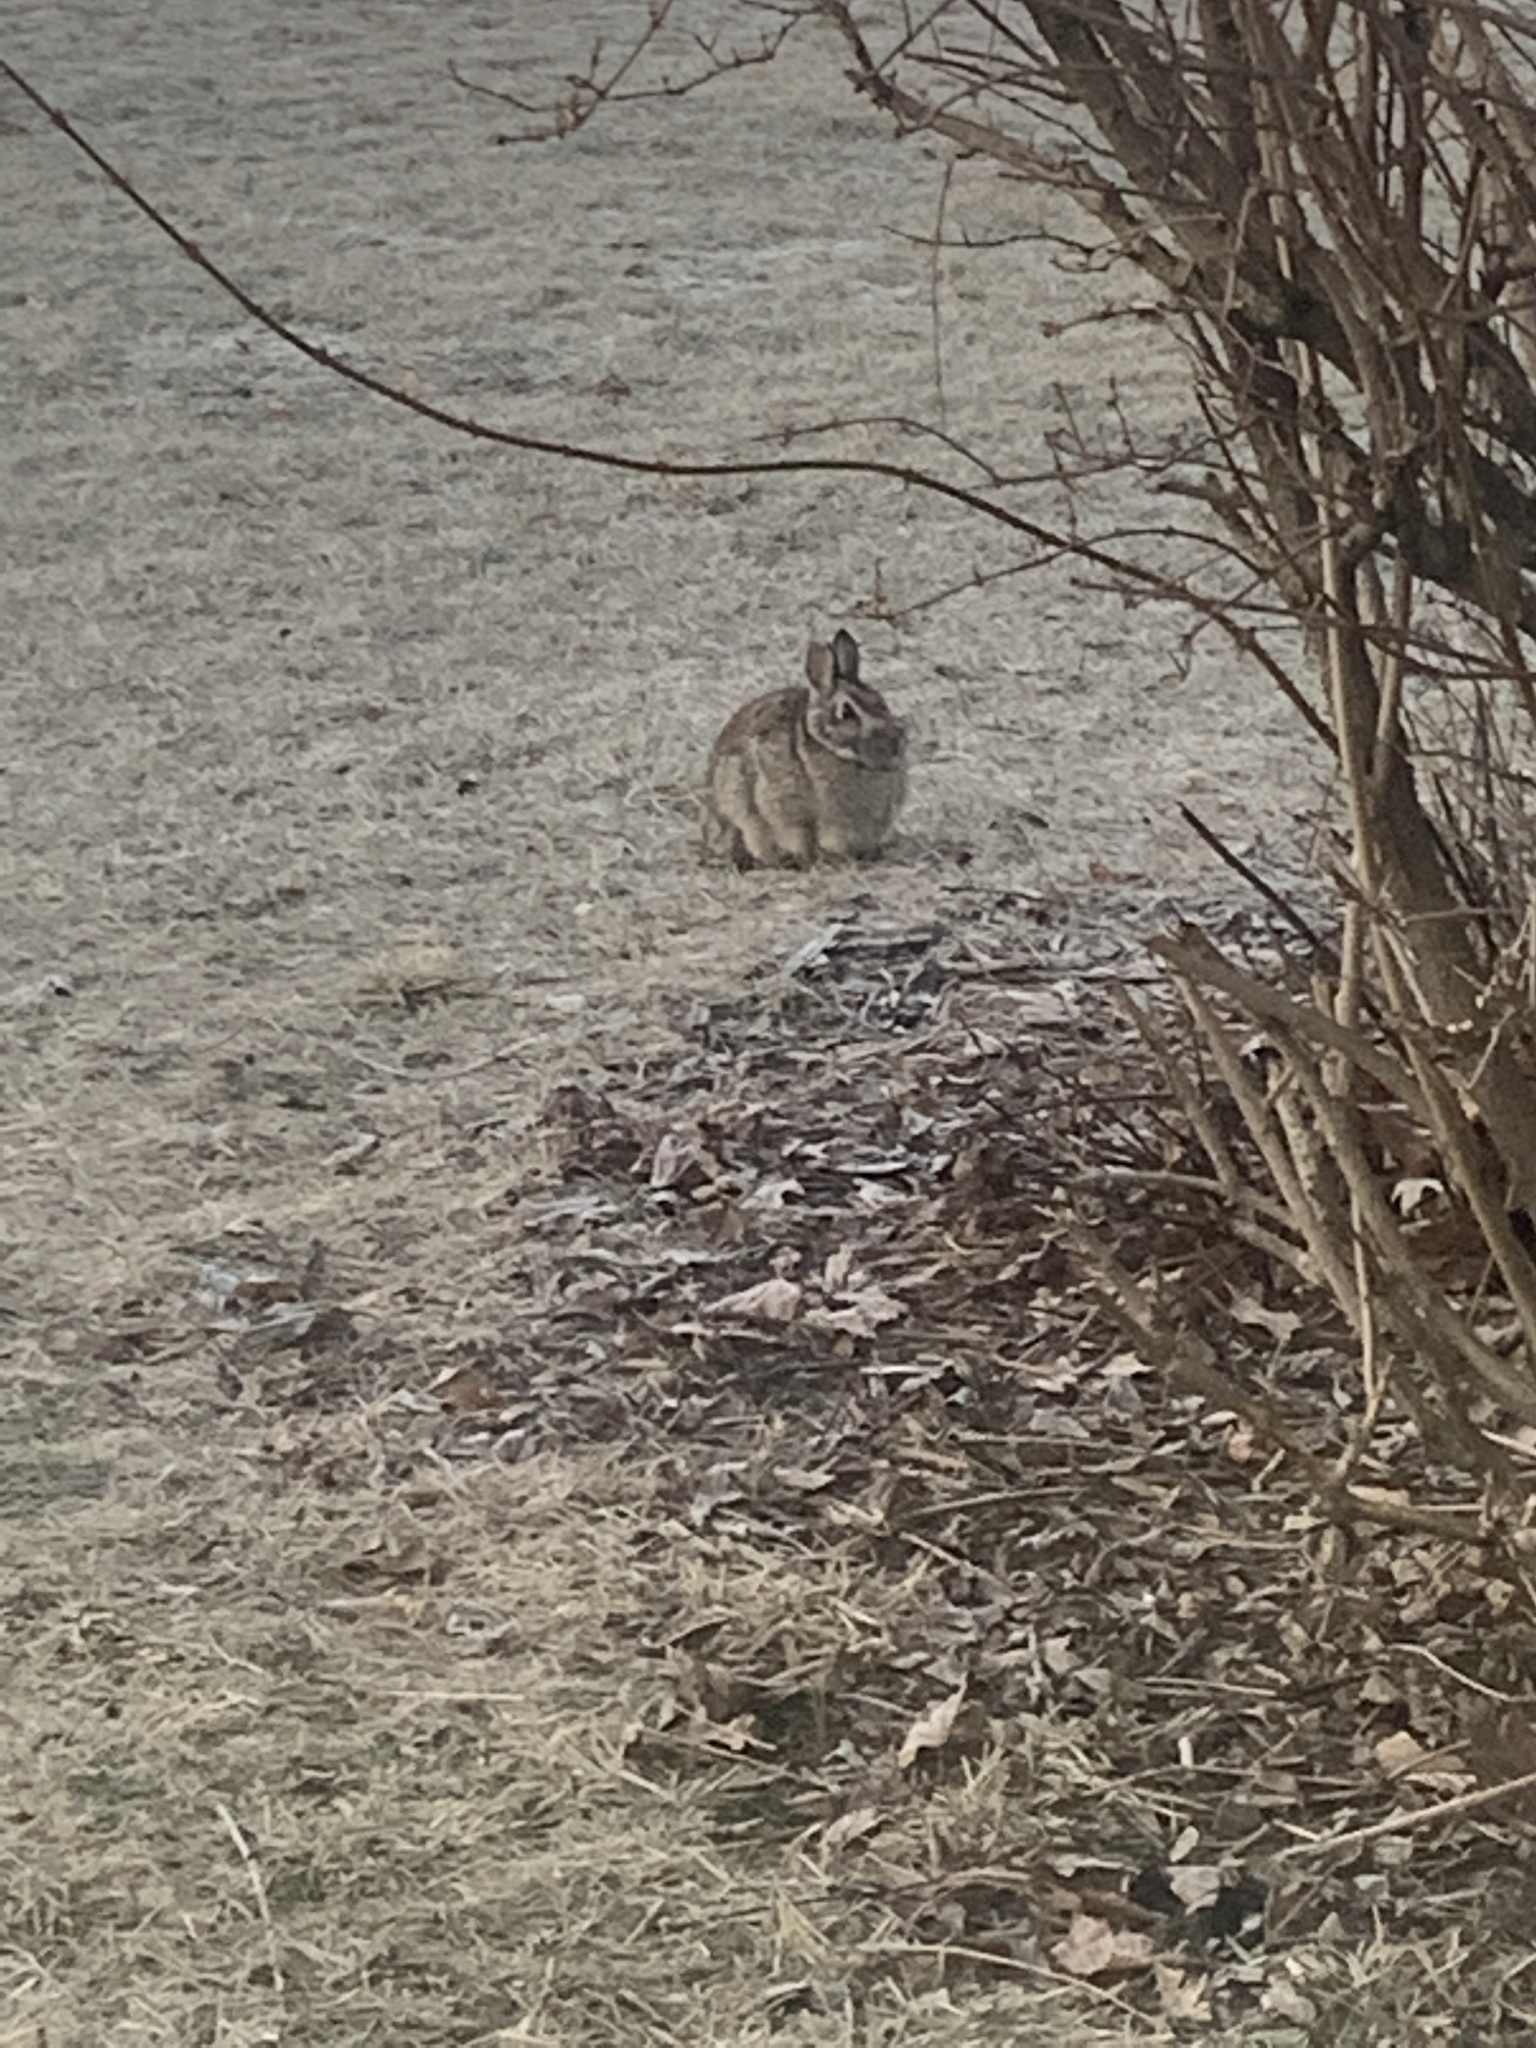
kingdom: Animalia
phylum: Chordata
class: Mammalia
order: Lagomorpha
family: Leporidae
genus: Sylvilagus
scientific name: Sylvilagus floridanus
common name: Eastern cottontail
